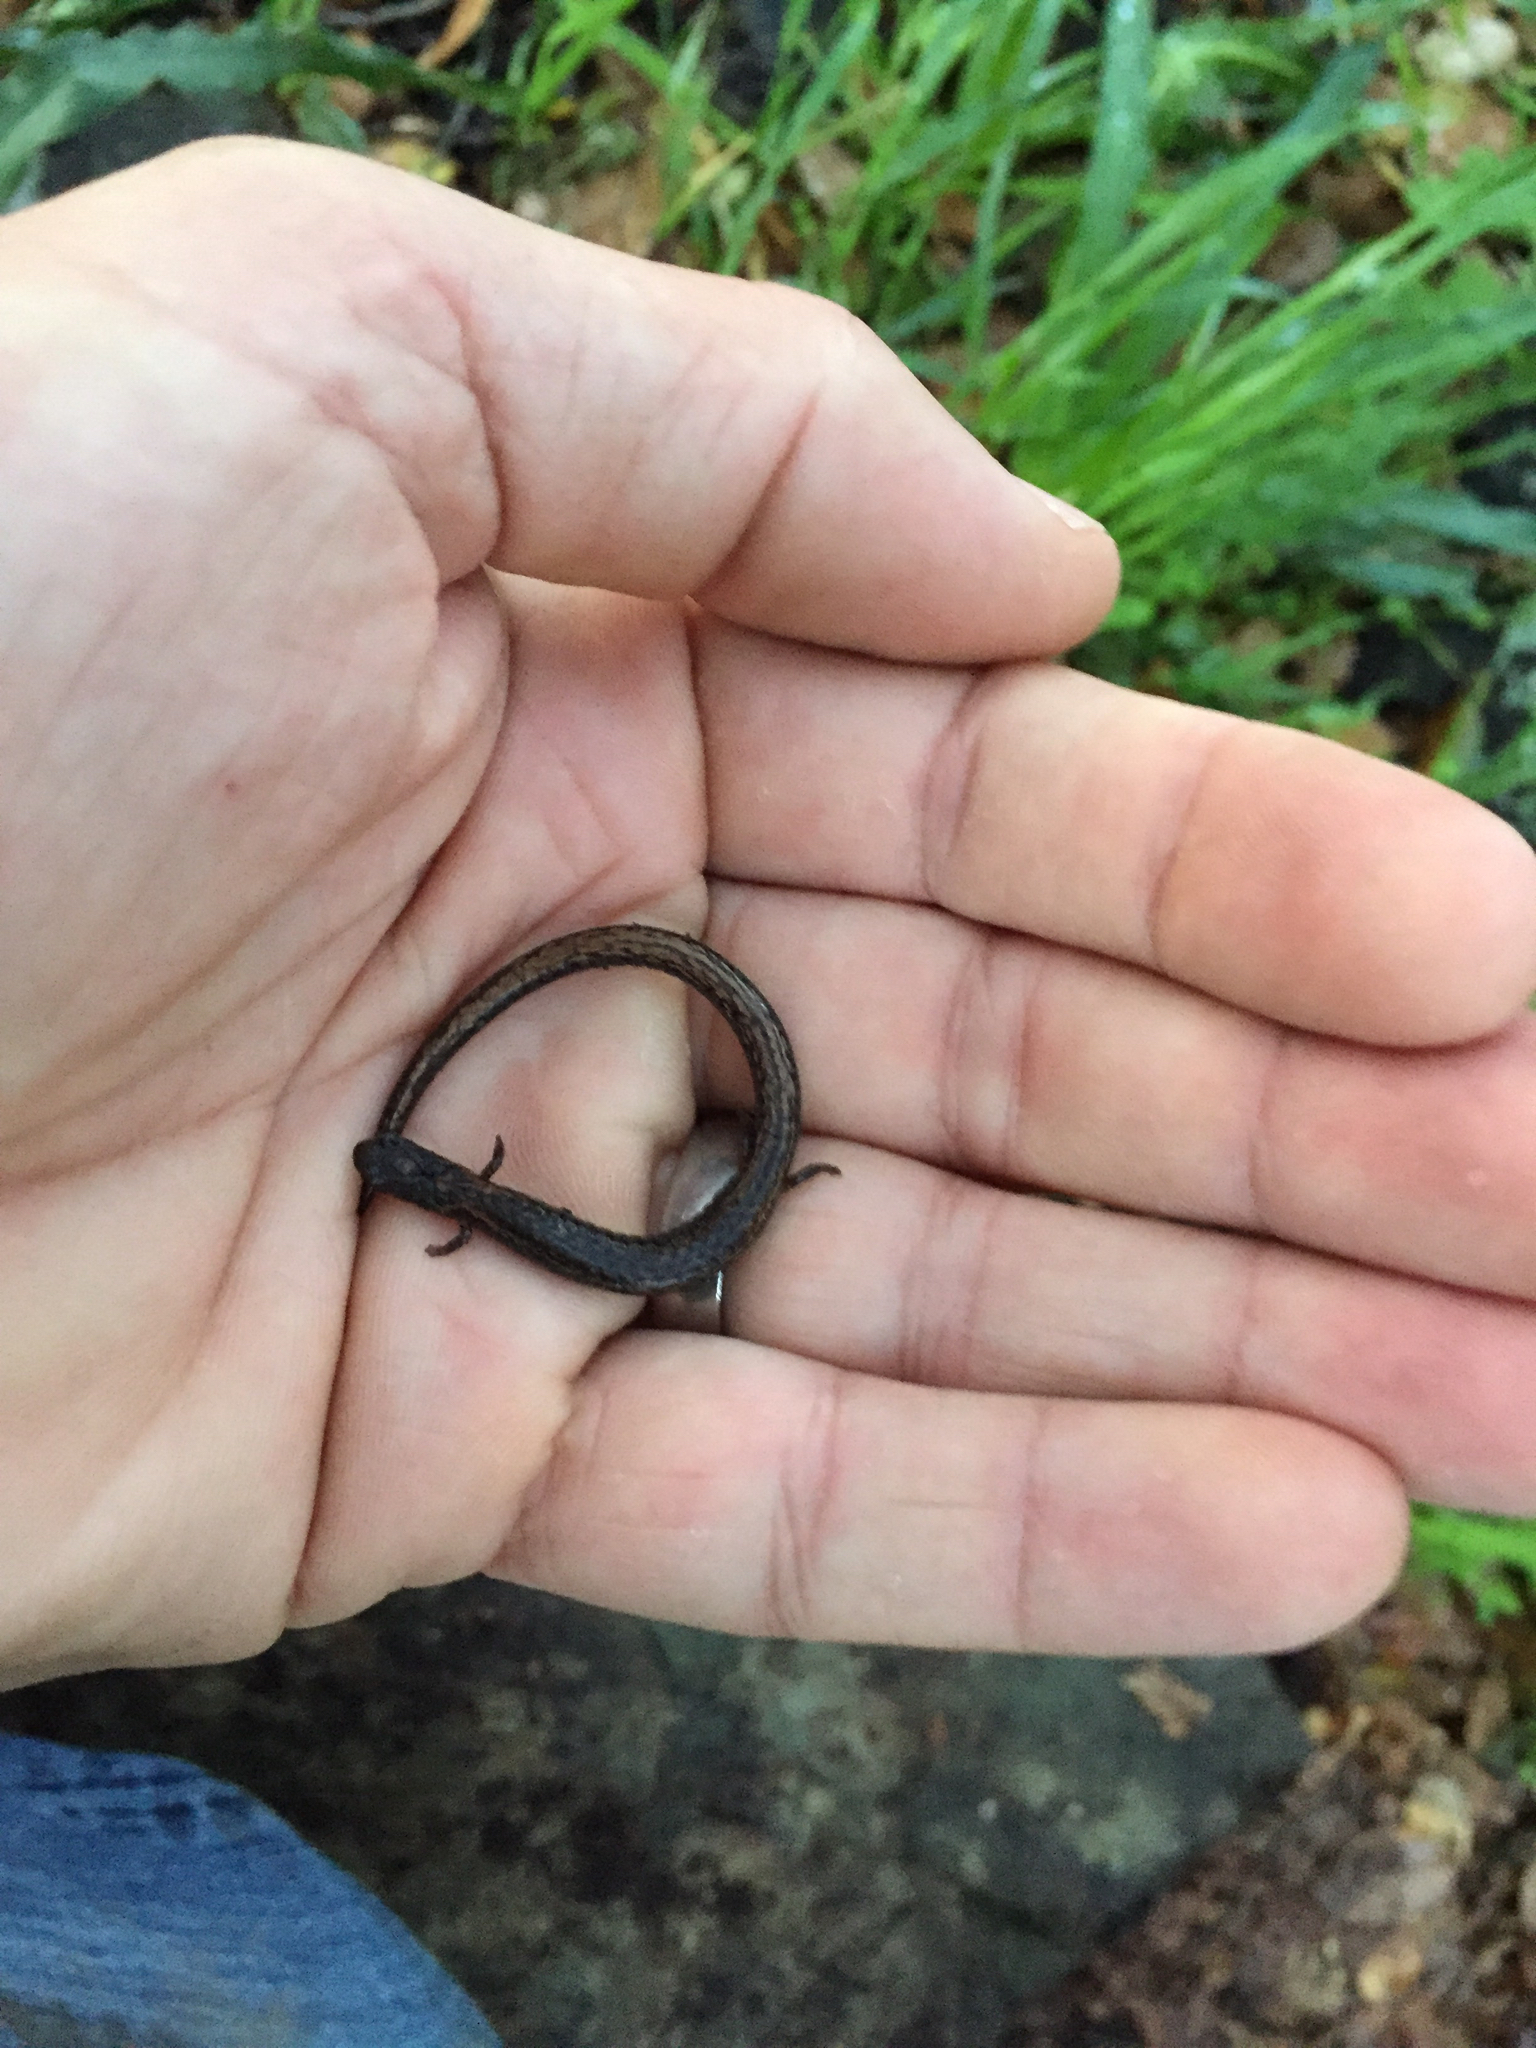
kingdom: Animalia
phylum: Chordata
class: Amphibia
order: Caudata
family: Plethodontidae
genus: Batrachoseps
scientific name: Batrachoseps attenuatus
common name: California slender salamander
